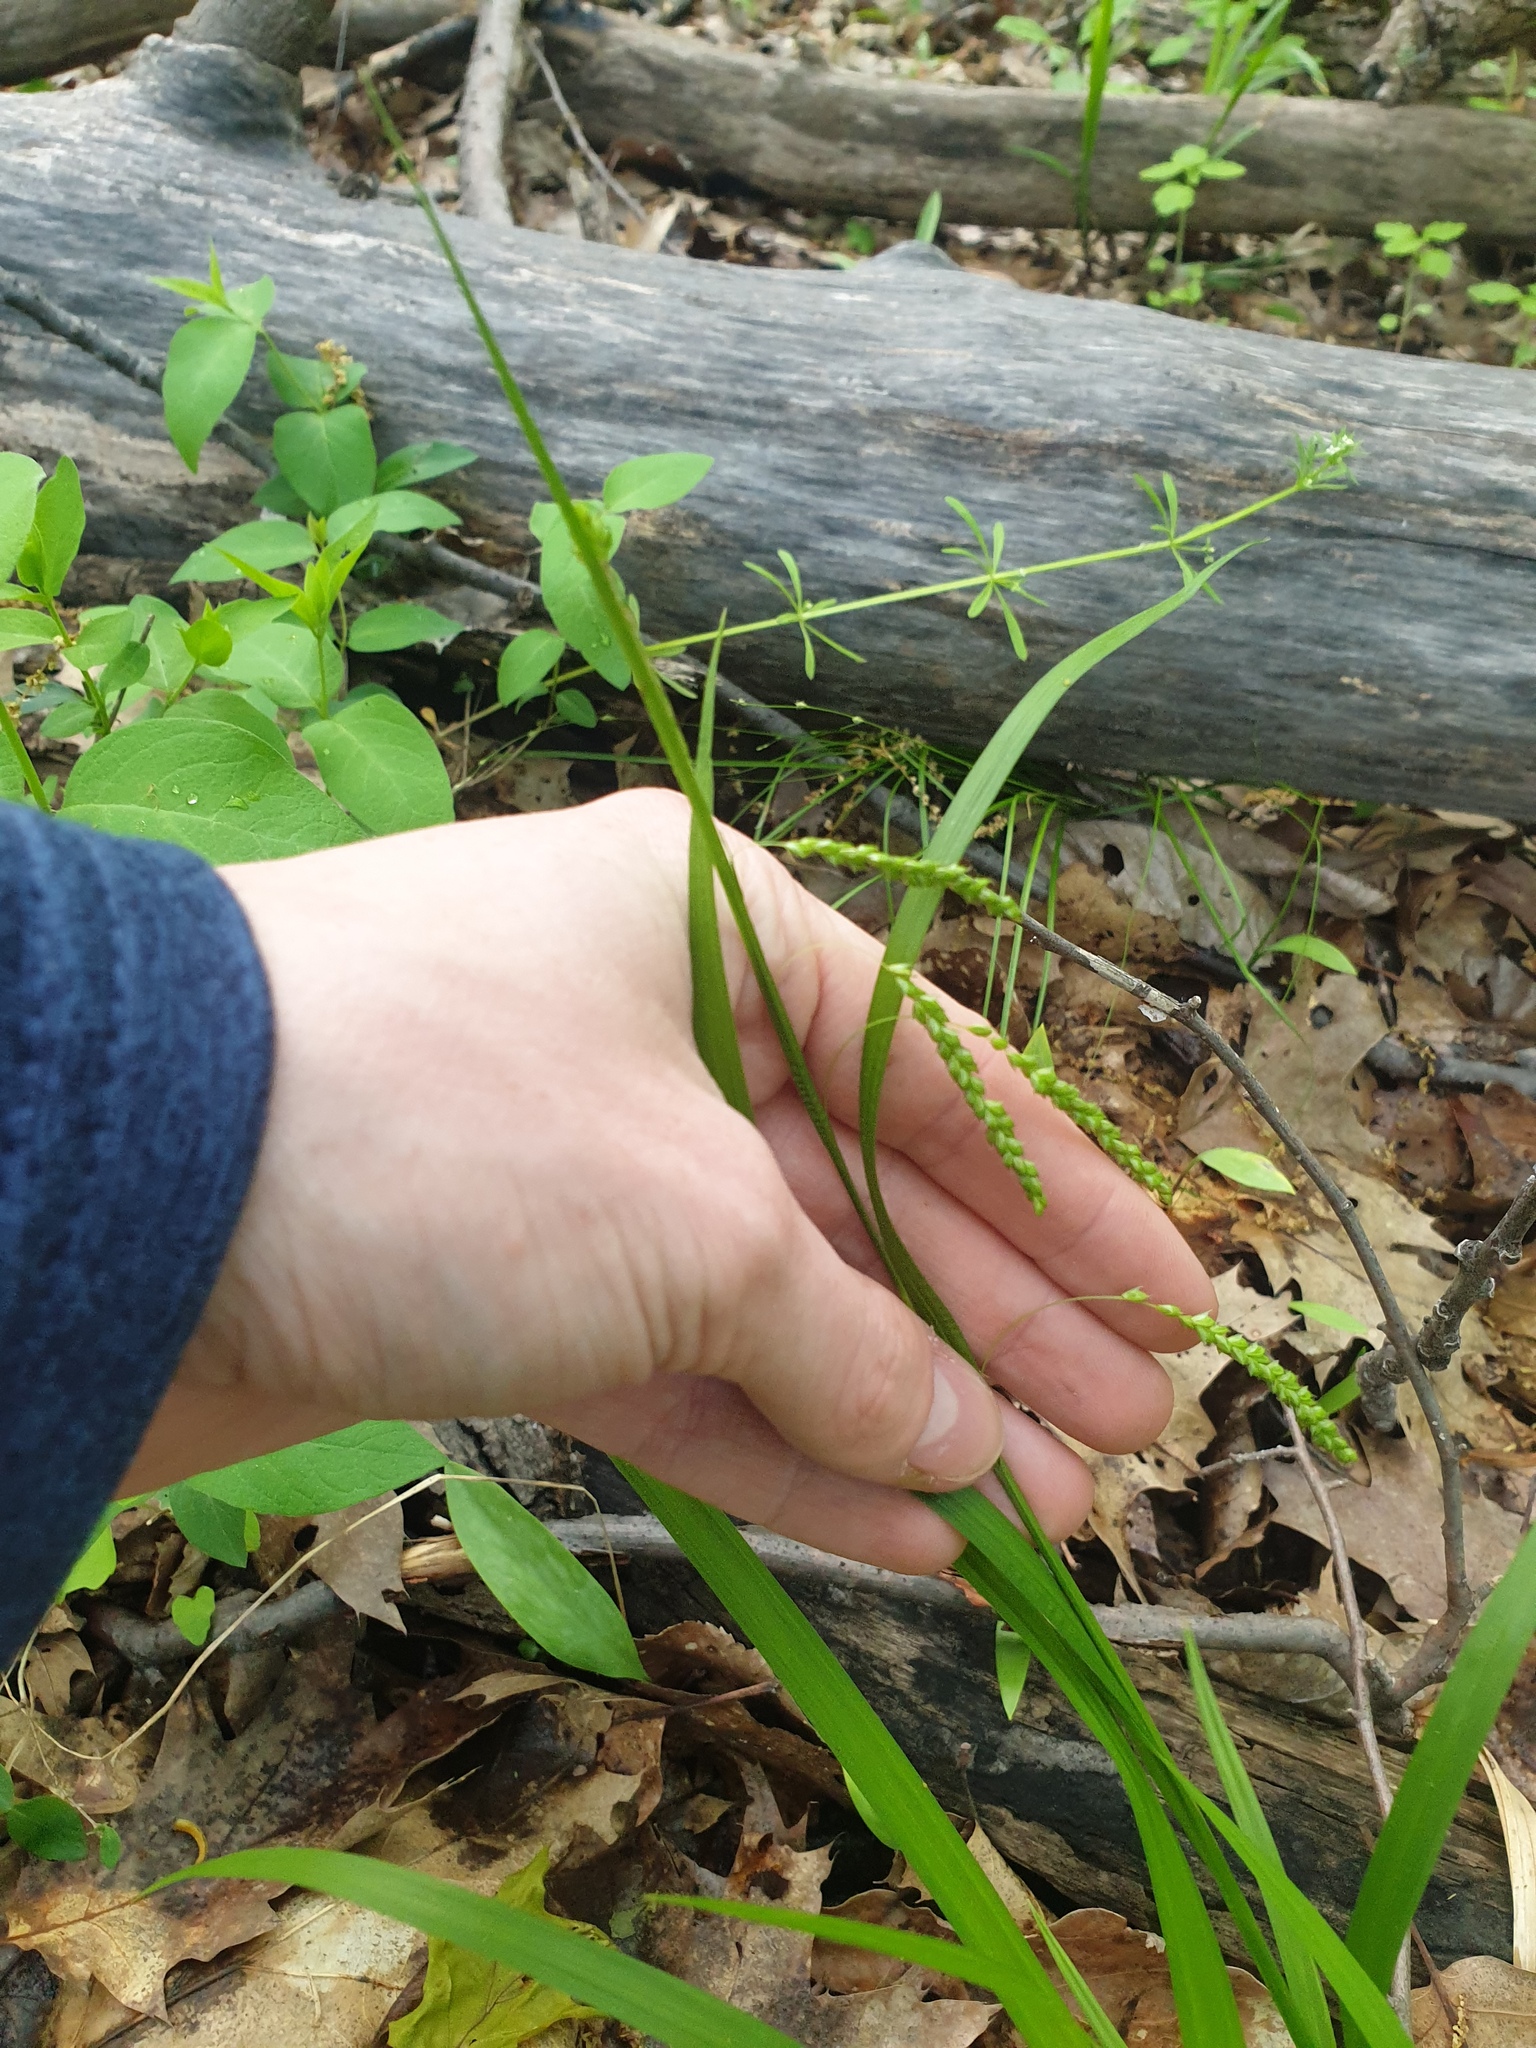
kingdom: Plantae
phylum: Tracheophyta
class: Liliopsida
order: Poales
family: Cyperaceae
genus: Carex
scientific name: Carex gracillima
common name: Graceful sedge
